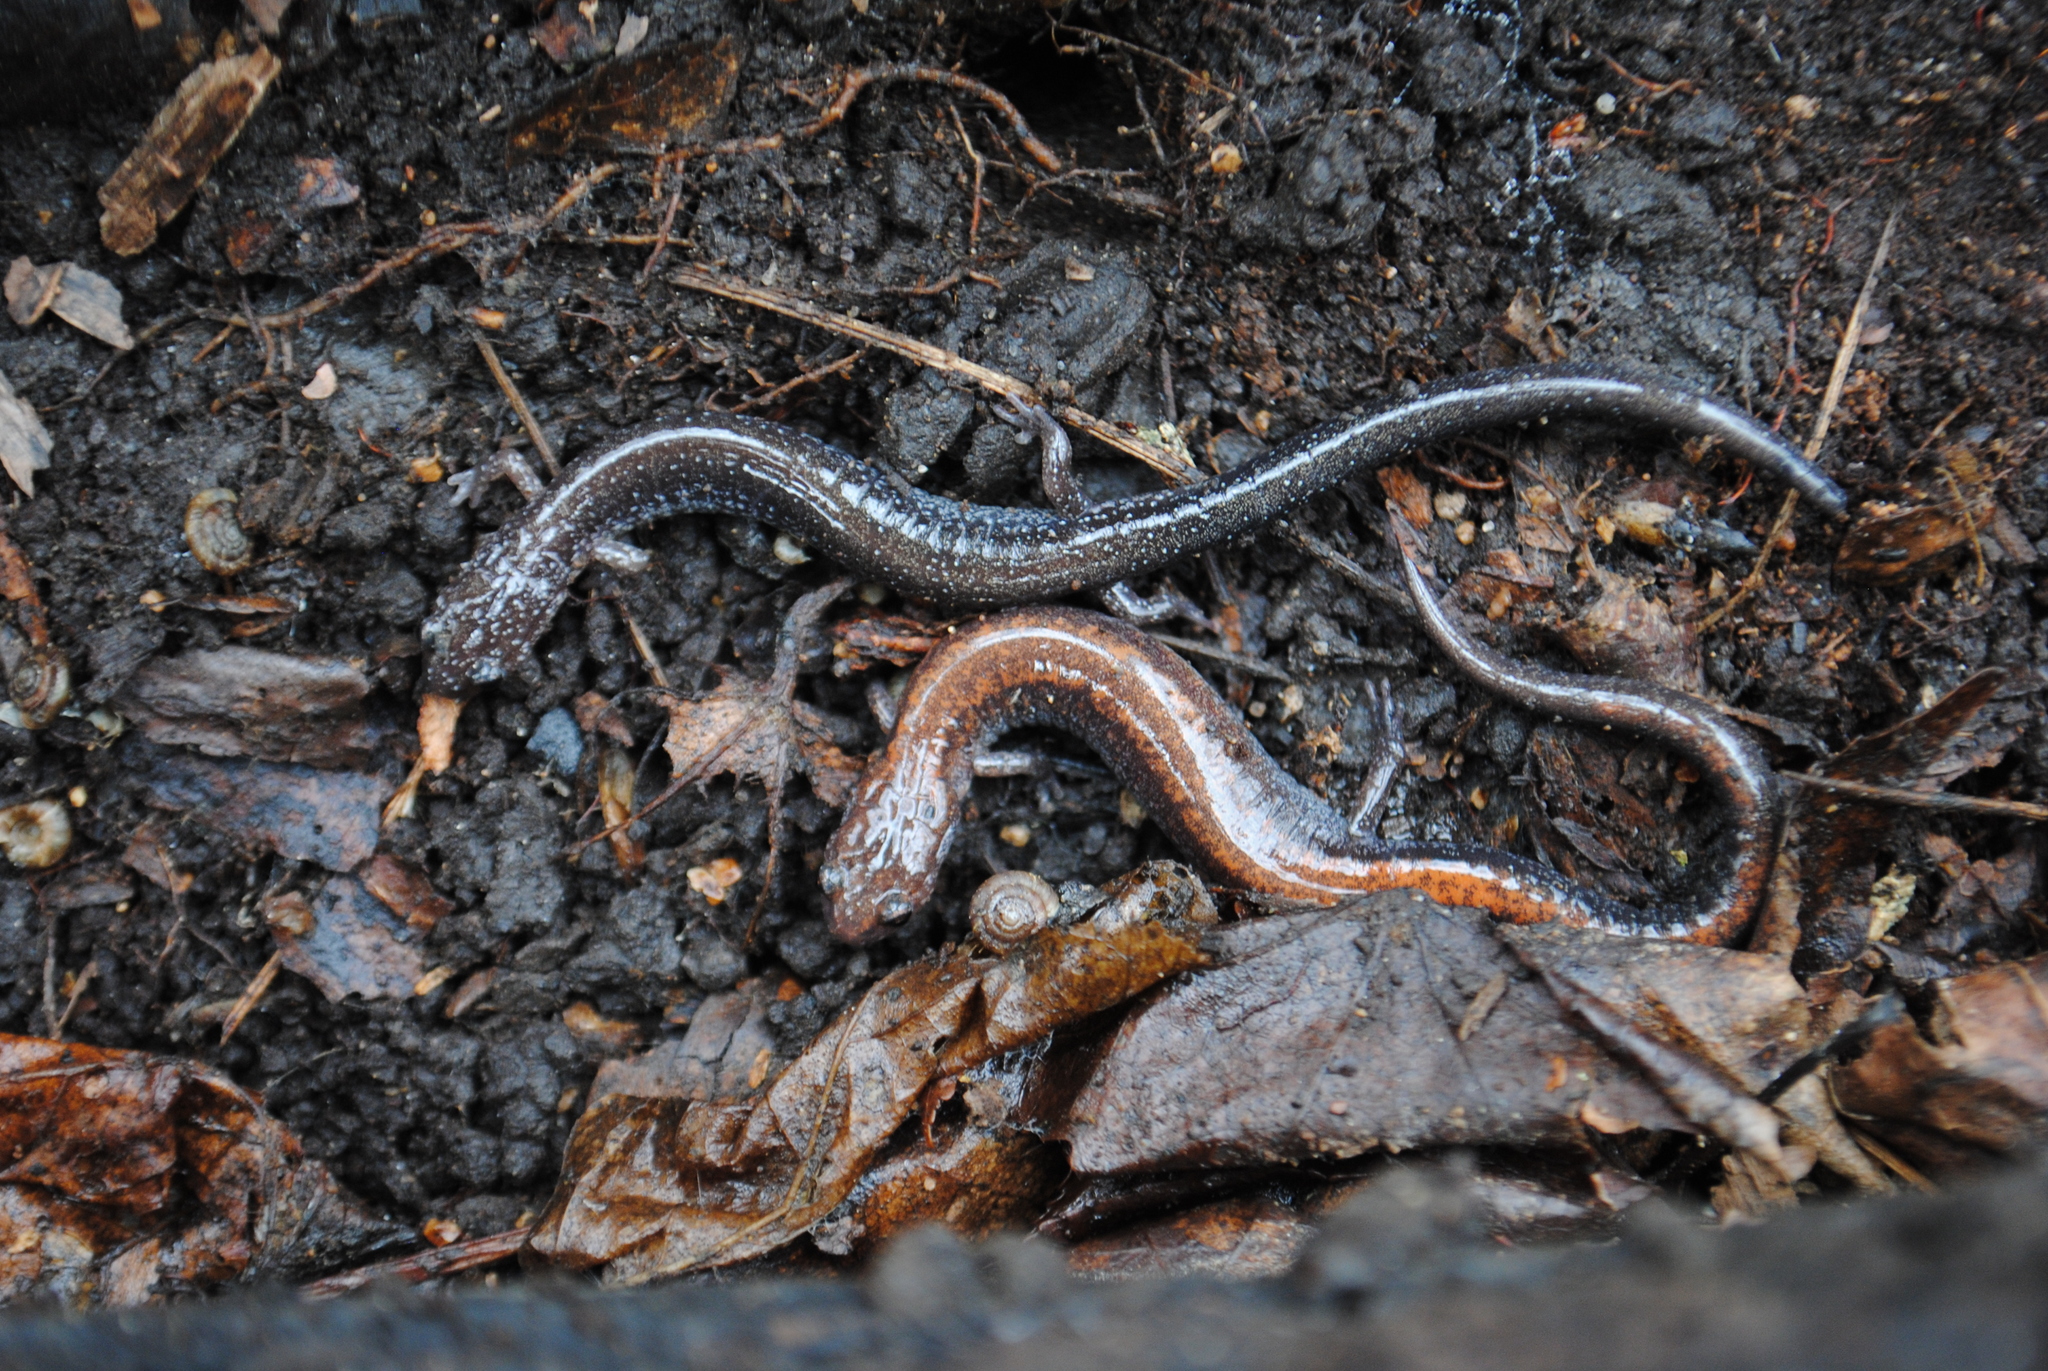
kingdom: Animalia
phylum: Chordata
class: Amphibia
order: Caudata
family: Plethodontidae
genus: Plethodon
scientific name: Plethodon cinereus
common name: Redback salamander
